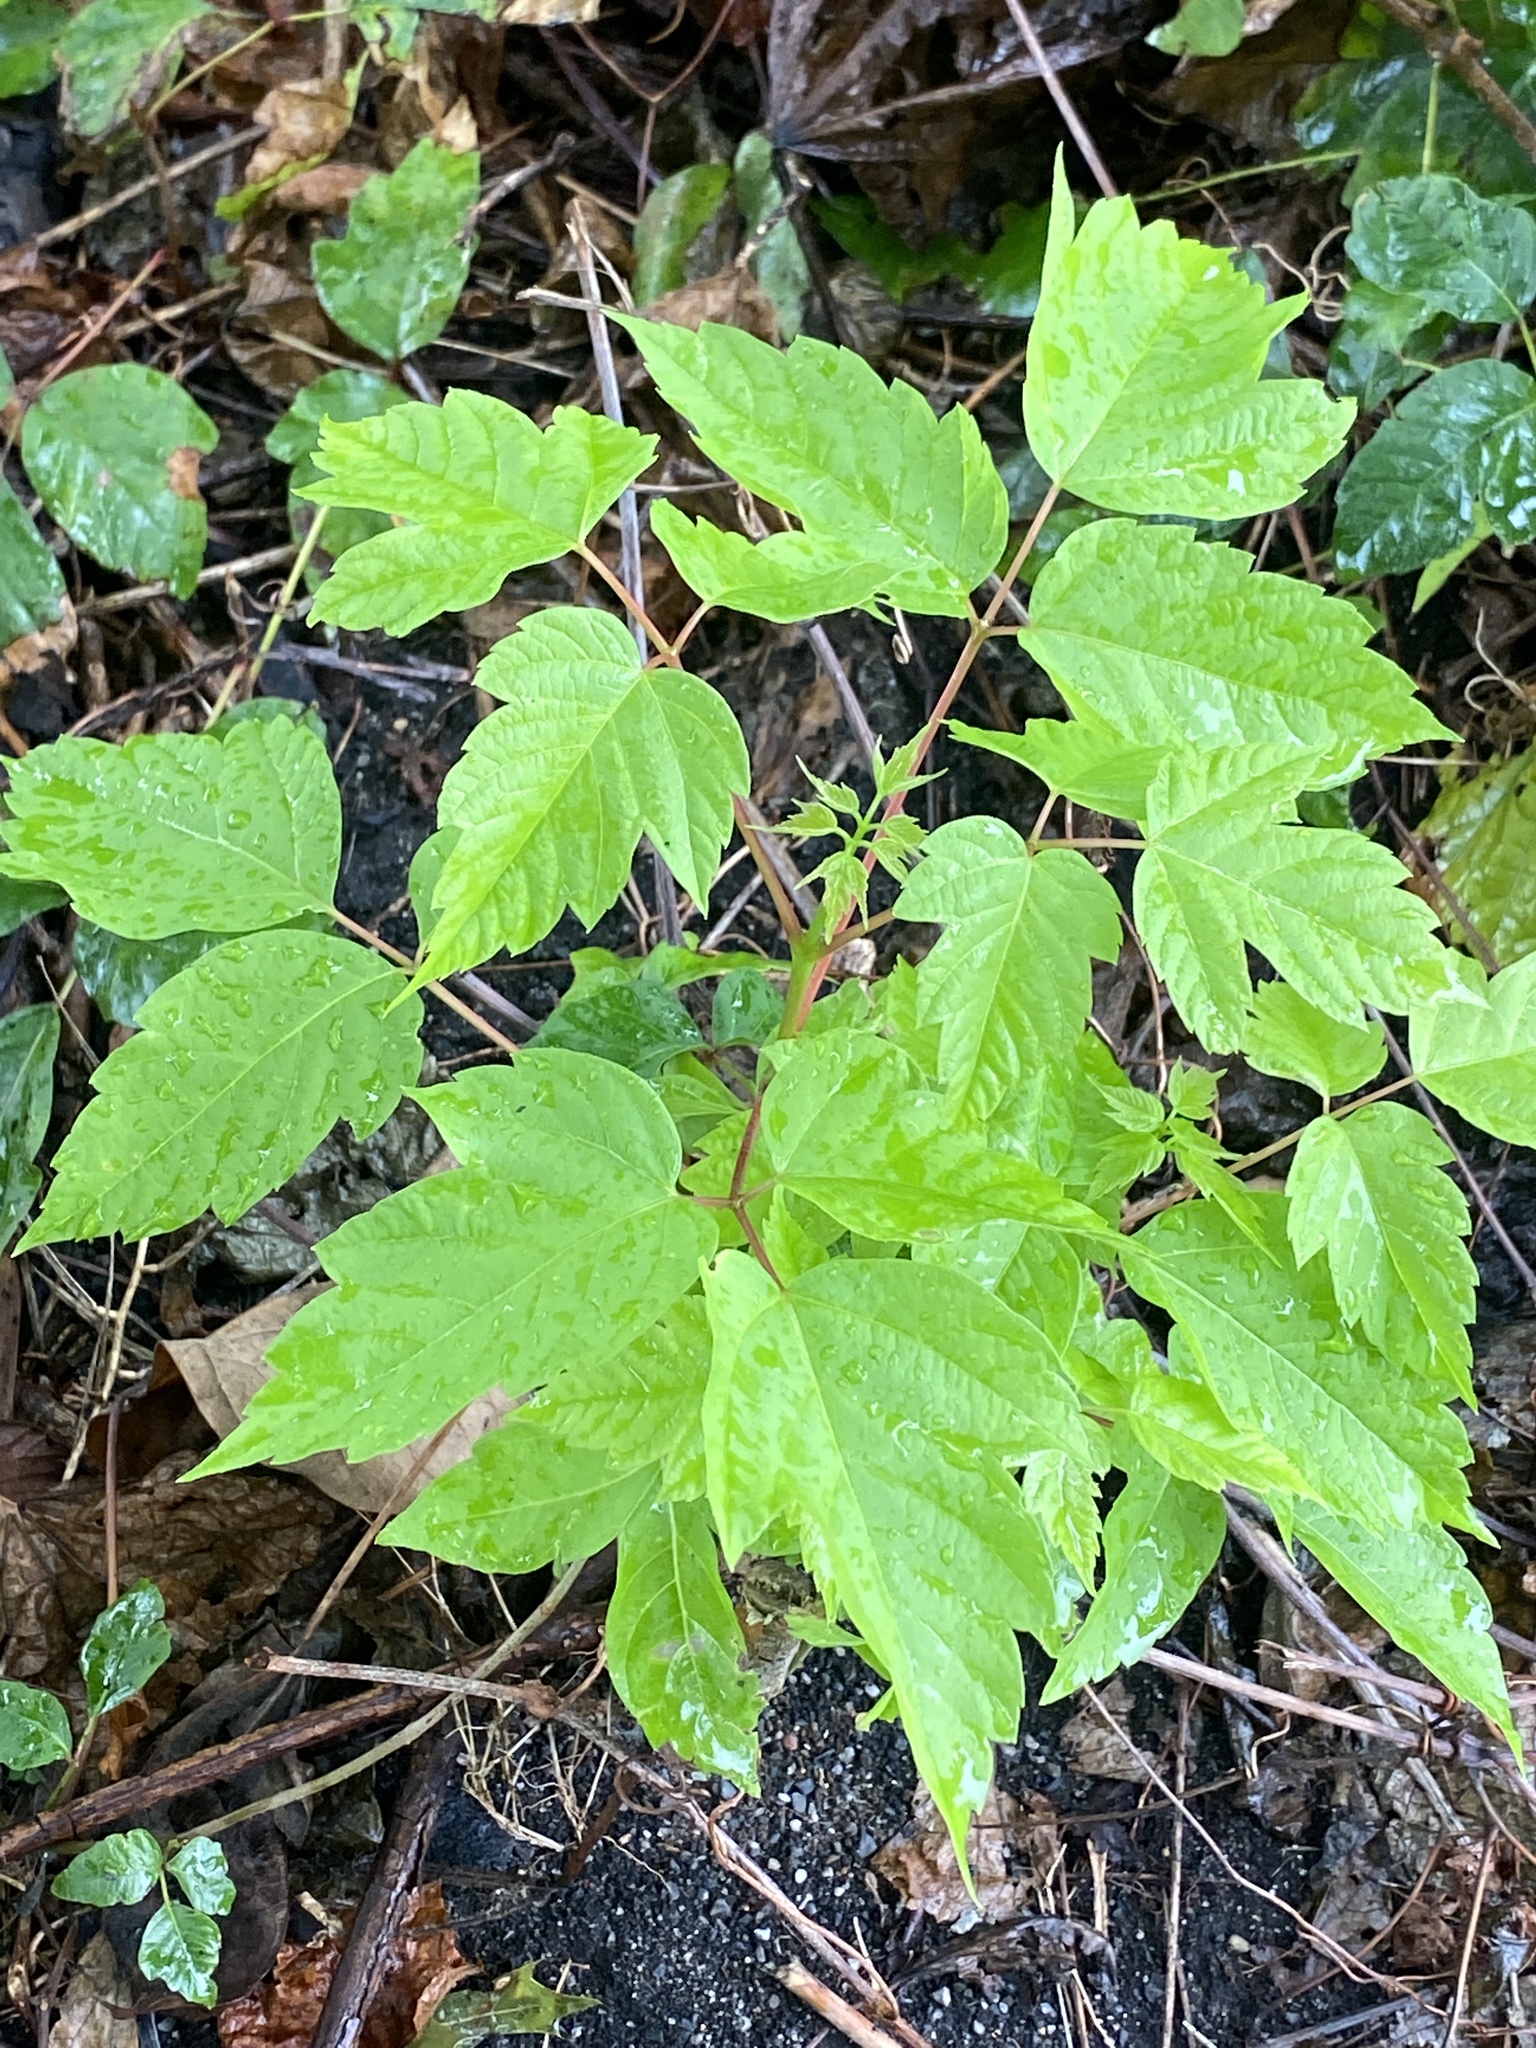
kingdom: Plantae
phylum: Tracheophyta
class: Magnoliopsida
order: Sapindales
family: Sapindaceae
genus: Acer
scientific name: Acer negundo
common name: Ashleaf maple
